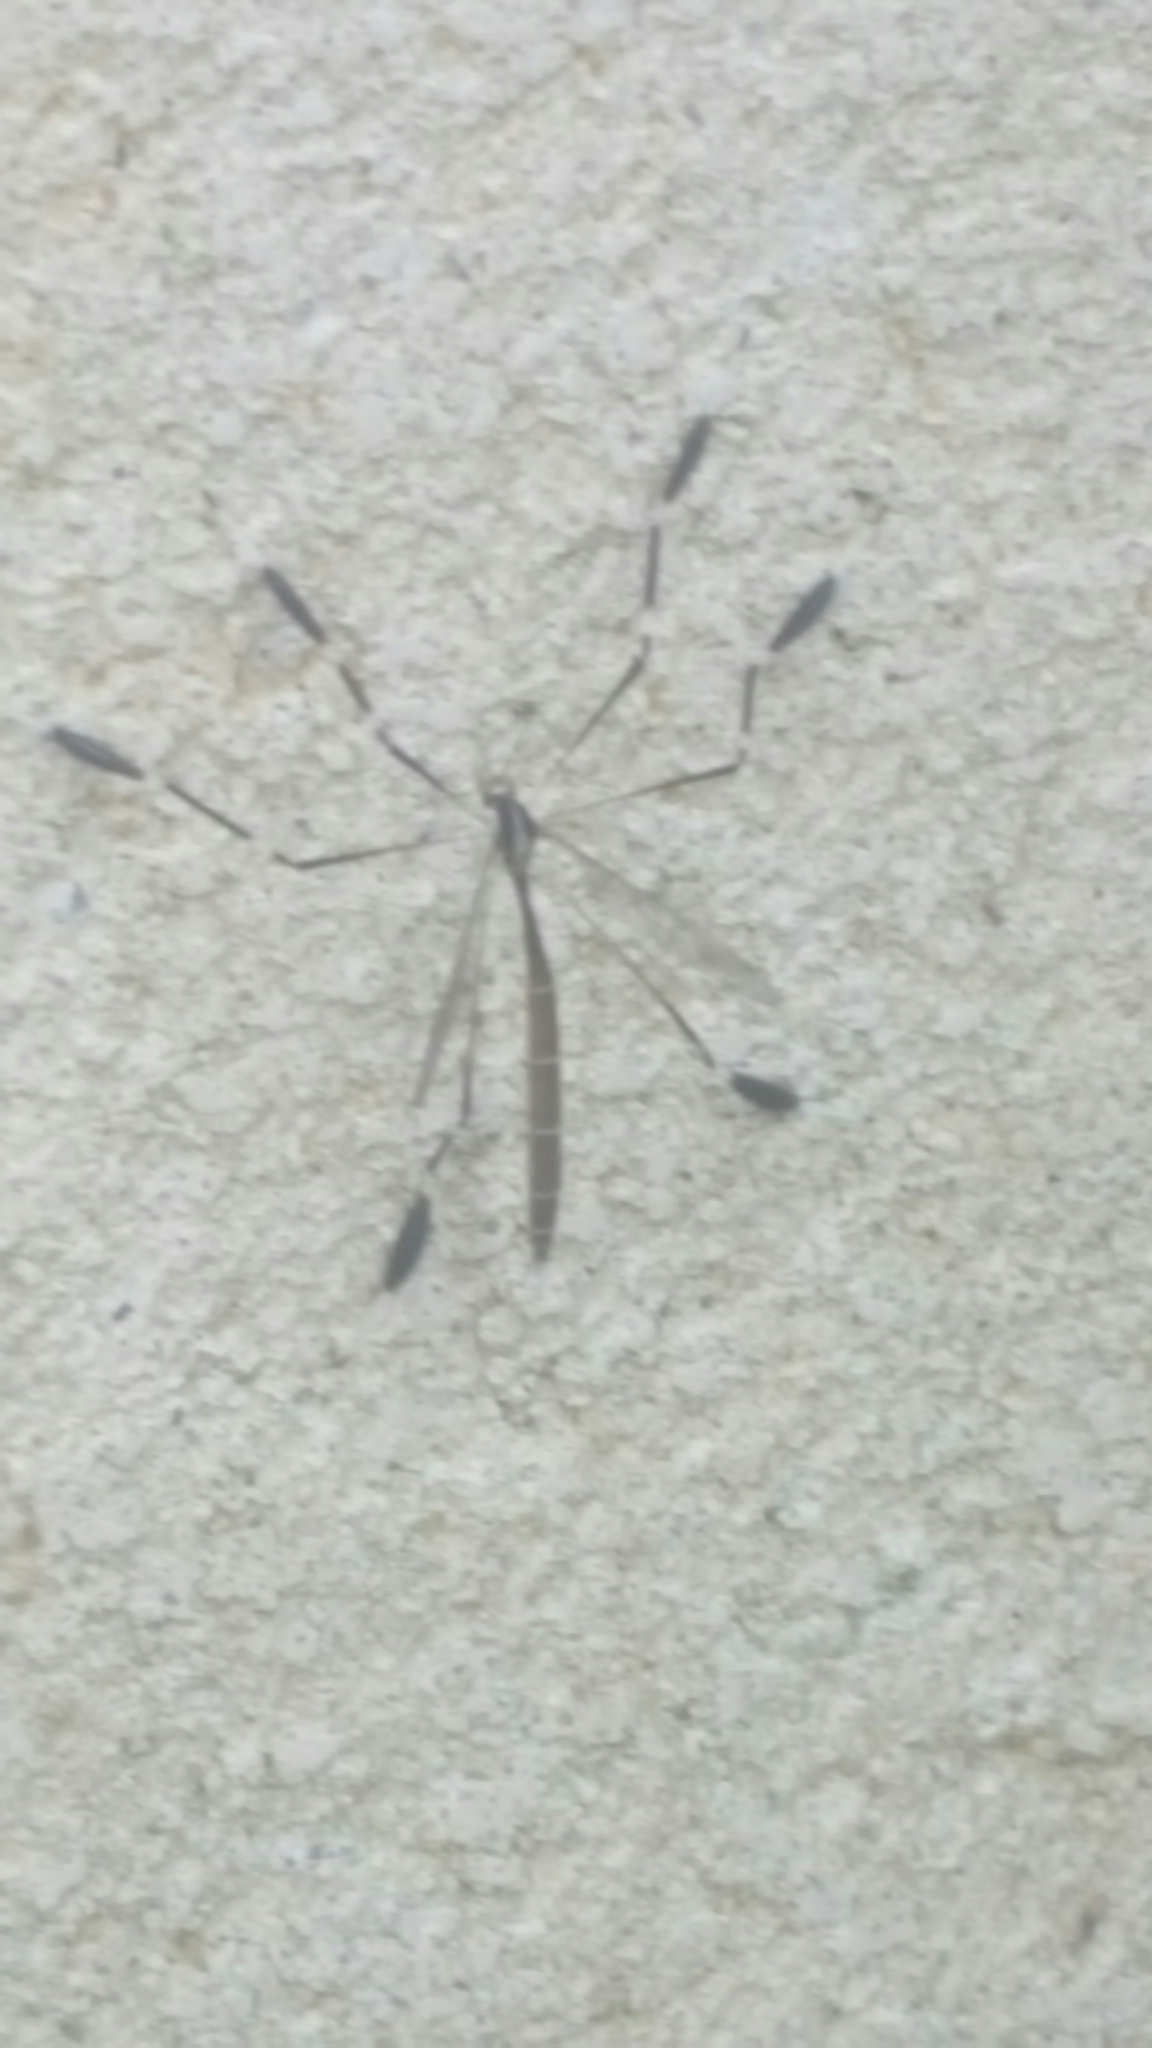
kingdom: Animalia
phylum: Arthropoda
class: Insecta
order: Diptera
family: Ptychopteridae
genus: Bittacomorpha
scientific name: Bittacomorpha clavipes
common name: Eastern phantom crane fly
